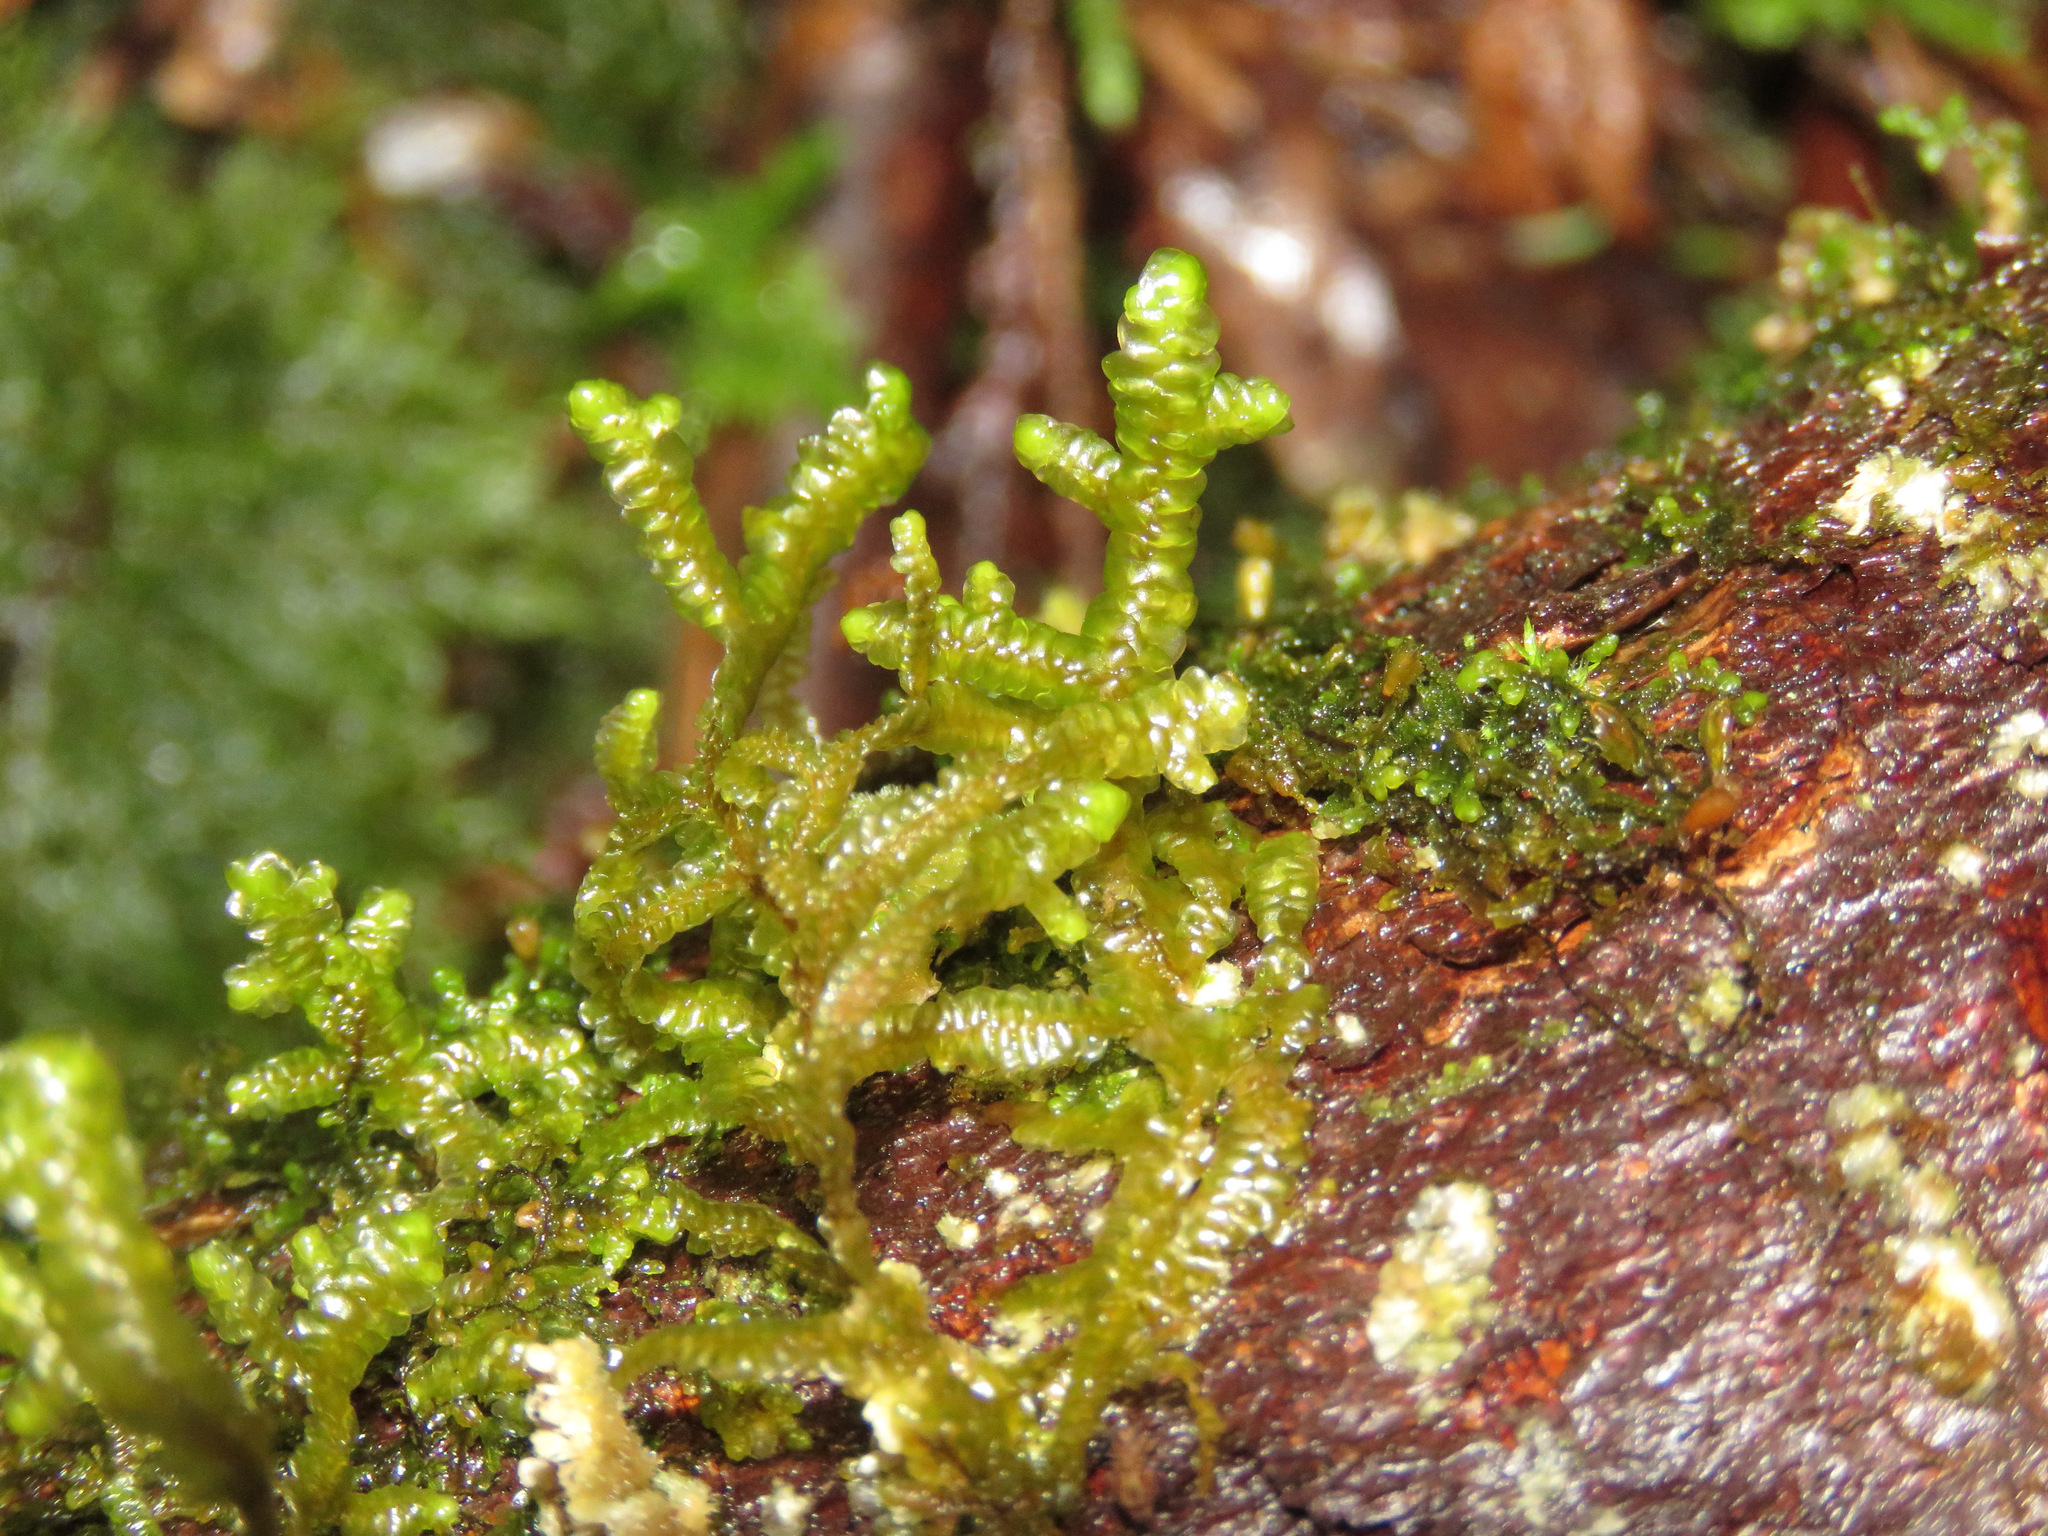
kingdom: Plantae
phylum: Marchantiophyta
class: Jungermanniopsida
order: Porellales
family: Porellaceae
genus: Porella
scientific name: Porella navicularis
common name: Tree ruffle liverwort
